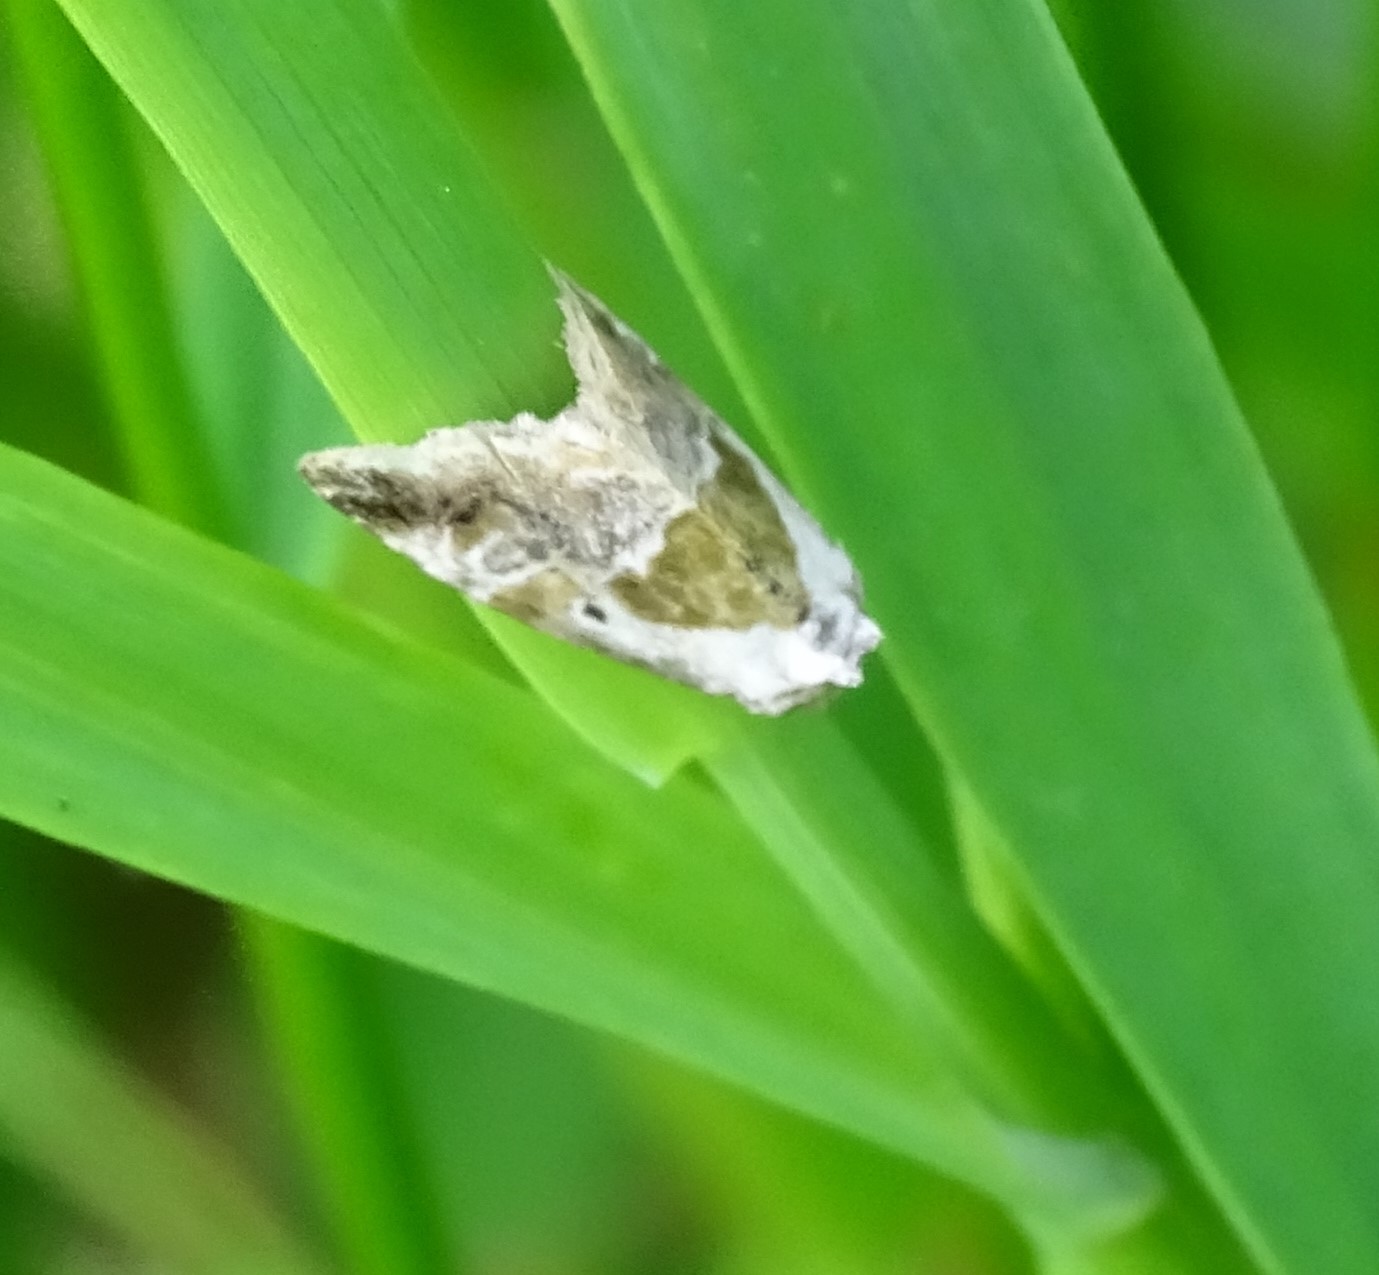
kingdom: Animalia
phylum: Arthropoda
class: Insecta
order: Lepidoptera
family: Noctuidae
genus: Maliattha
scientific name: Maliattha synochitis
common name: Black-dotted glyph
